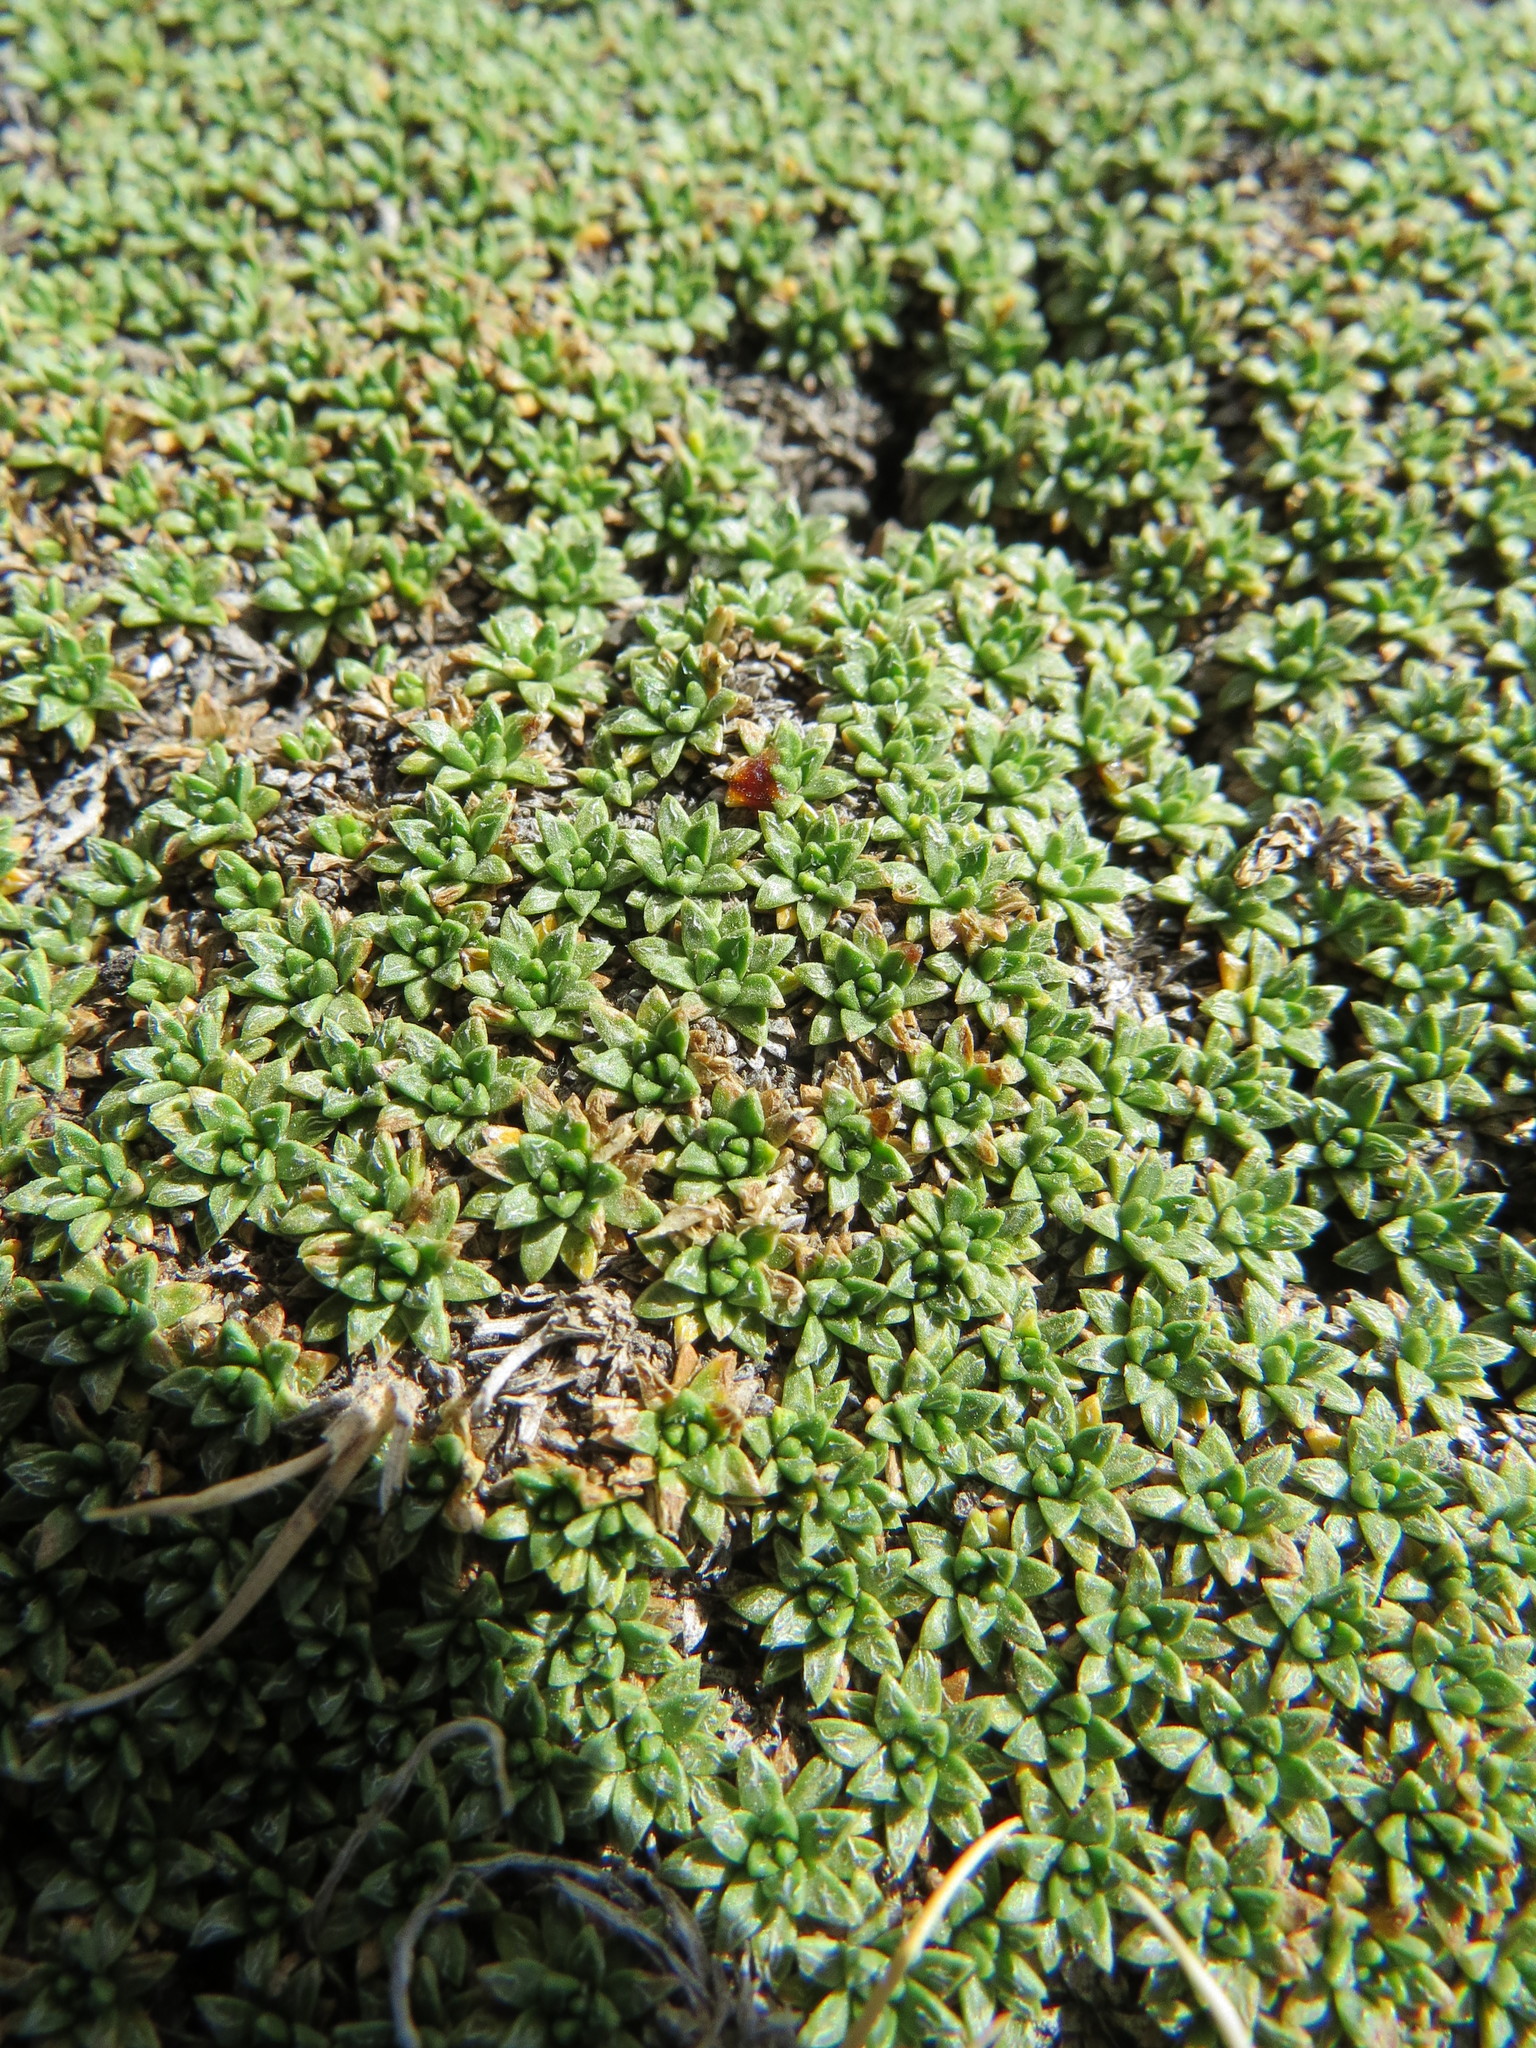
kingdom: Plantae
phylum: Tracheophyta
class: Magnoliopsida
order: Apiales
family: Apiaceae
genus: Azorella
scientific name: Azorella monantha
